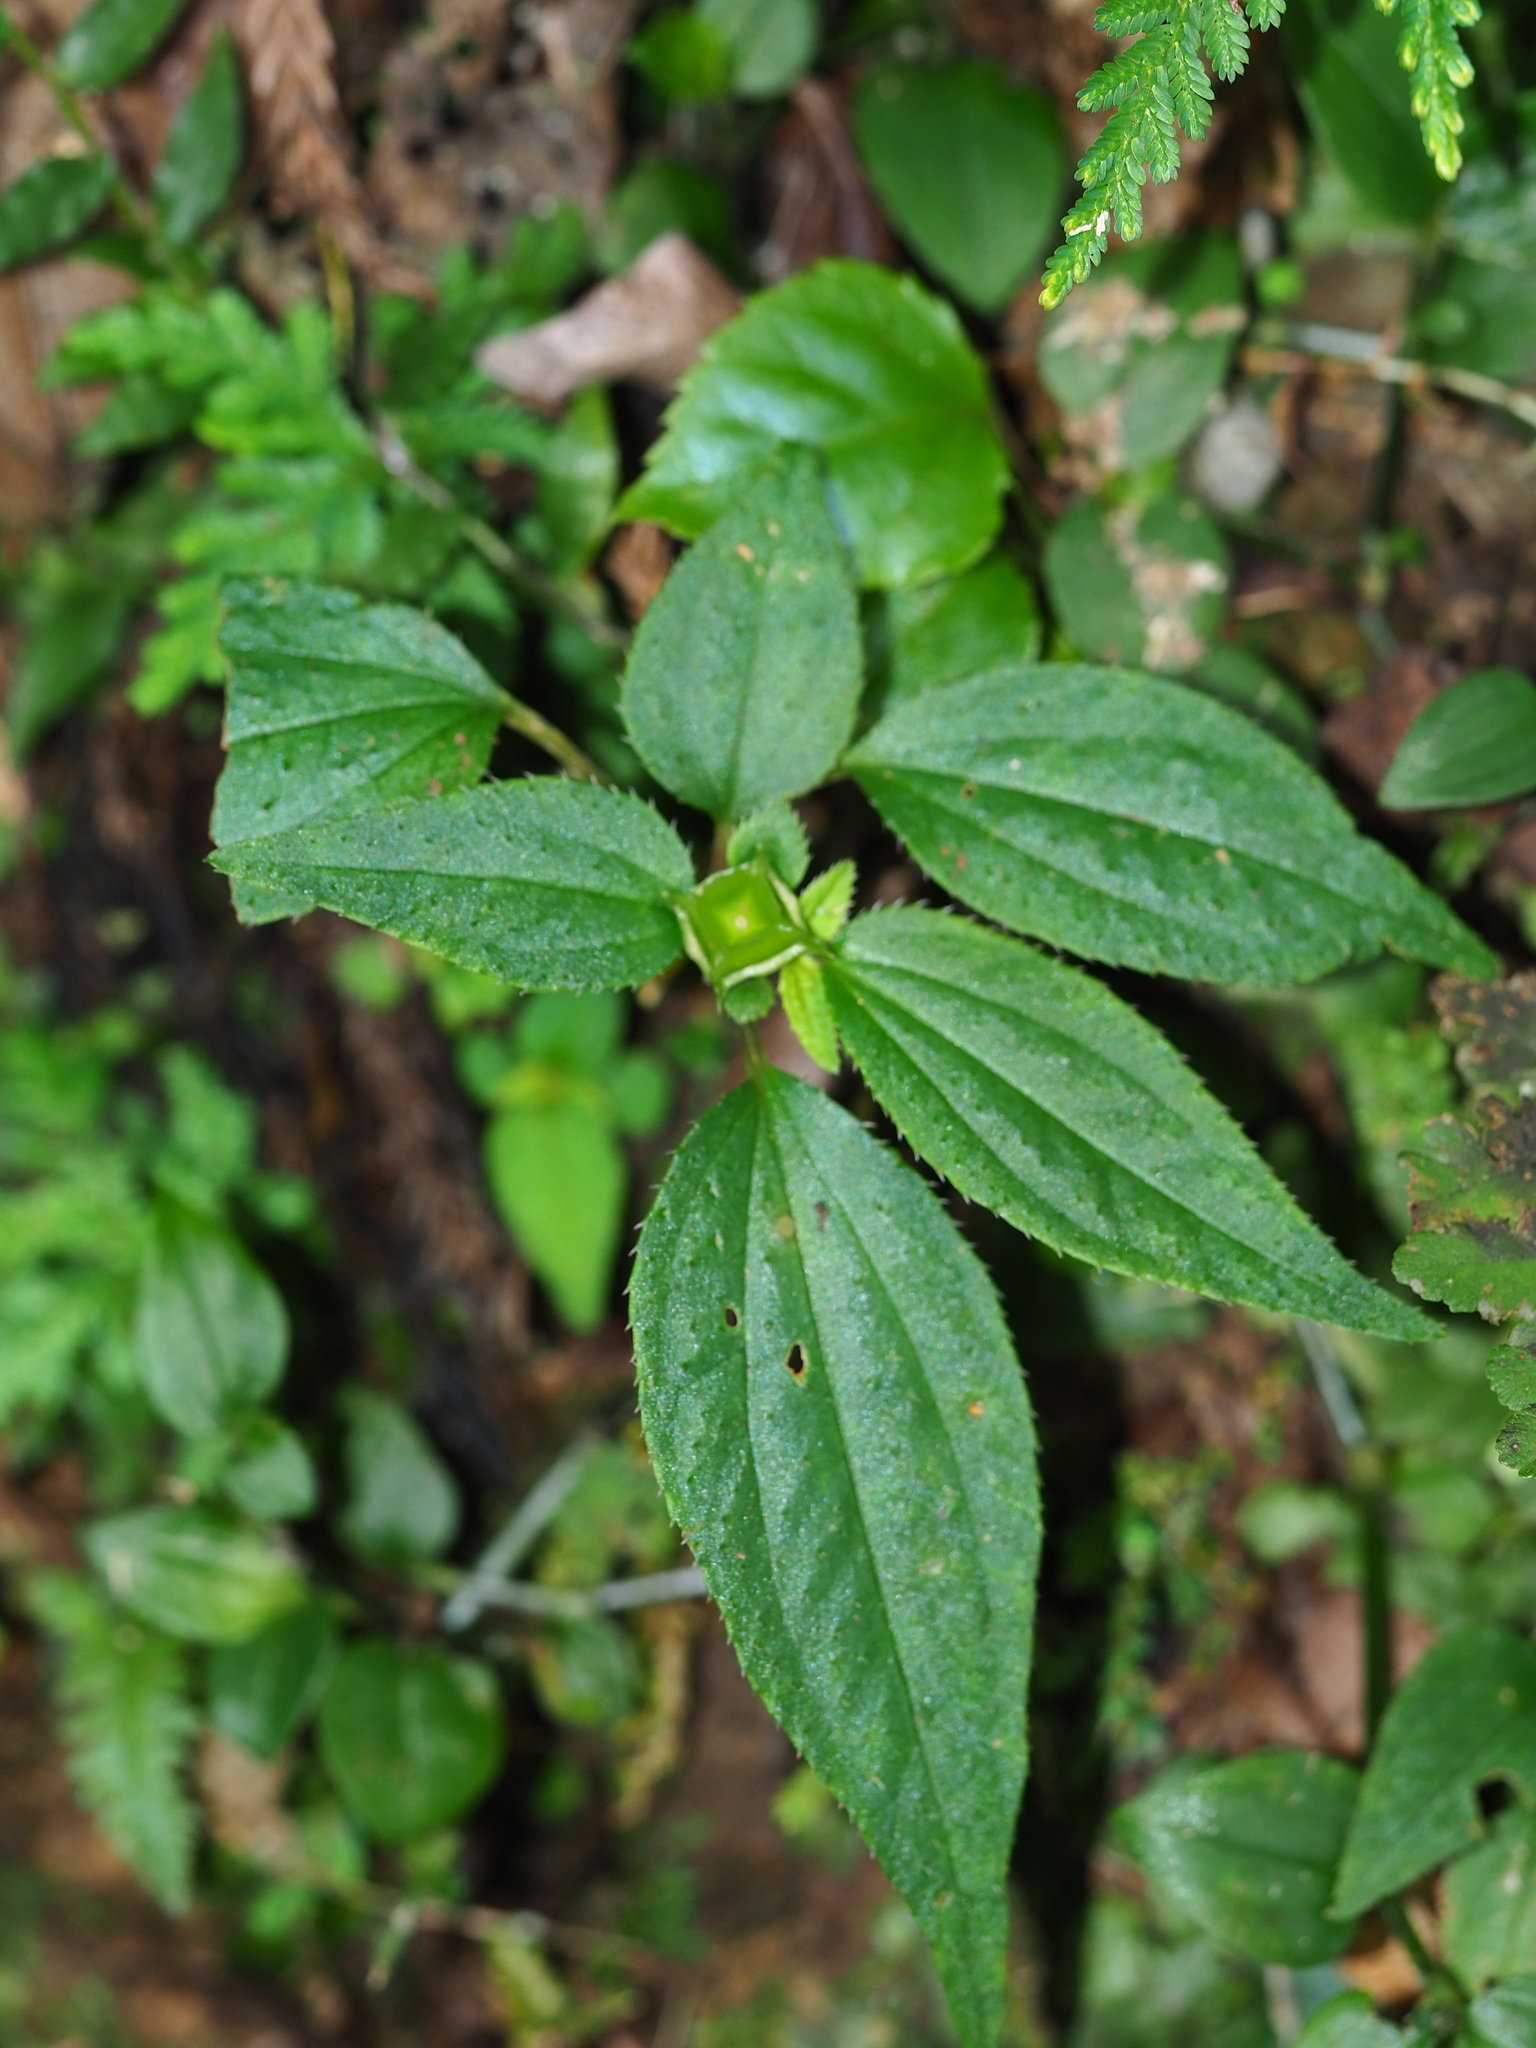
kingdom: Plantae
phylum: Tracheophyta
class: Magnoliopsida
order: Myrtales
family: Melastomataceae
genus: Sarcopyramis
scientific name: Sarcopyramis napalensis
